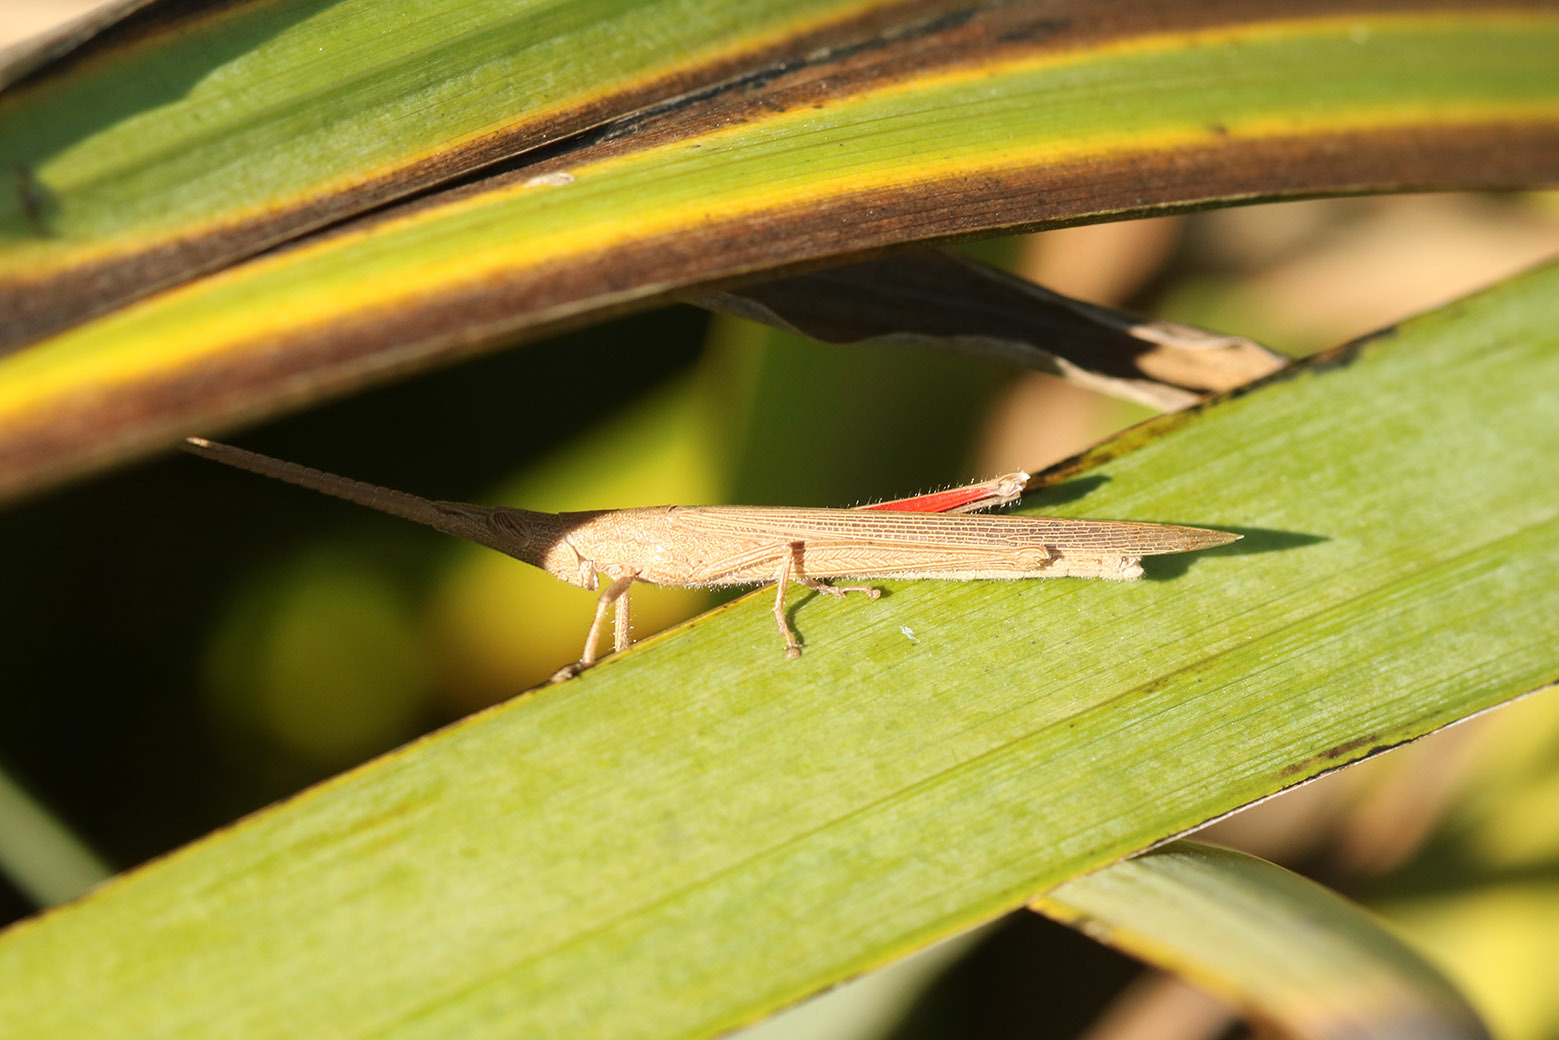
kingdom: Animalia
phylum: Arthropoda
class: Insecta
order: Orthoptera
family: Acrididae
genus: Haroldgrantia
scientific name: Haroldgrantia lignosa
